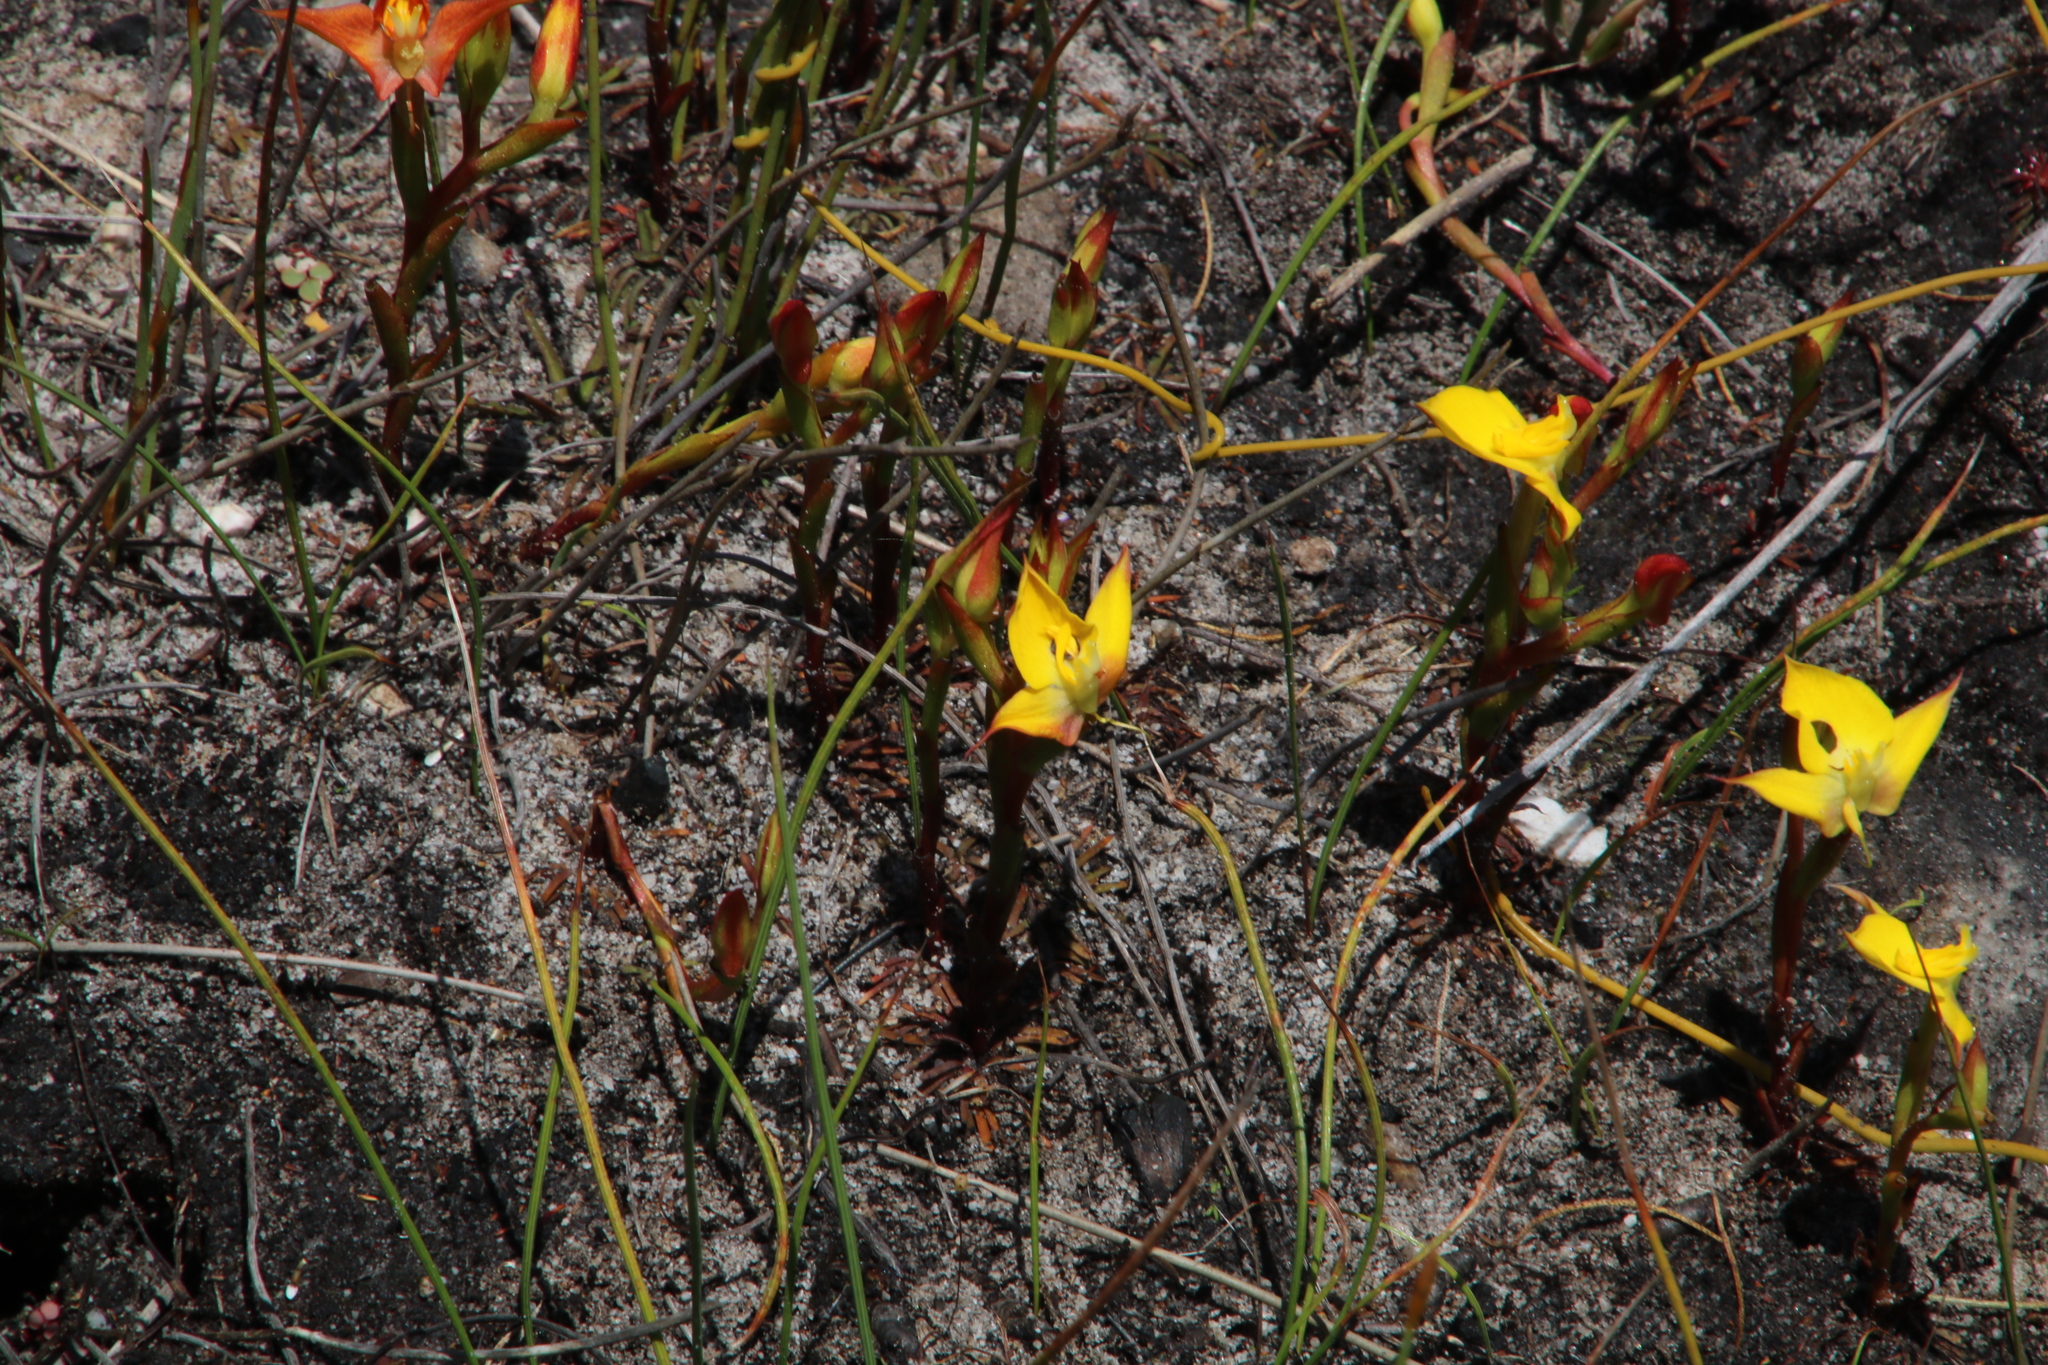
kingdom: Plantae
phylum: Tracheophyta
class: Liliopsida
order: Asparagales
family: Orchidaceae
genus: Disa
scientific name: Disa tenuifolia
